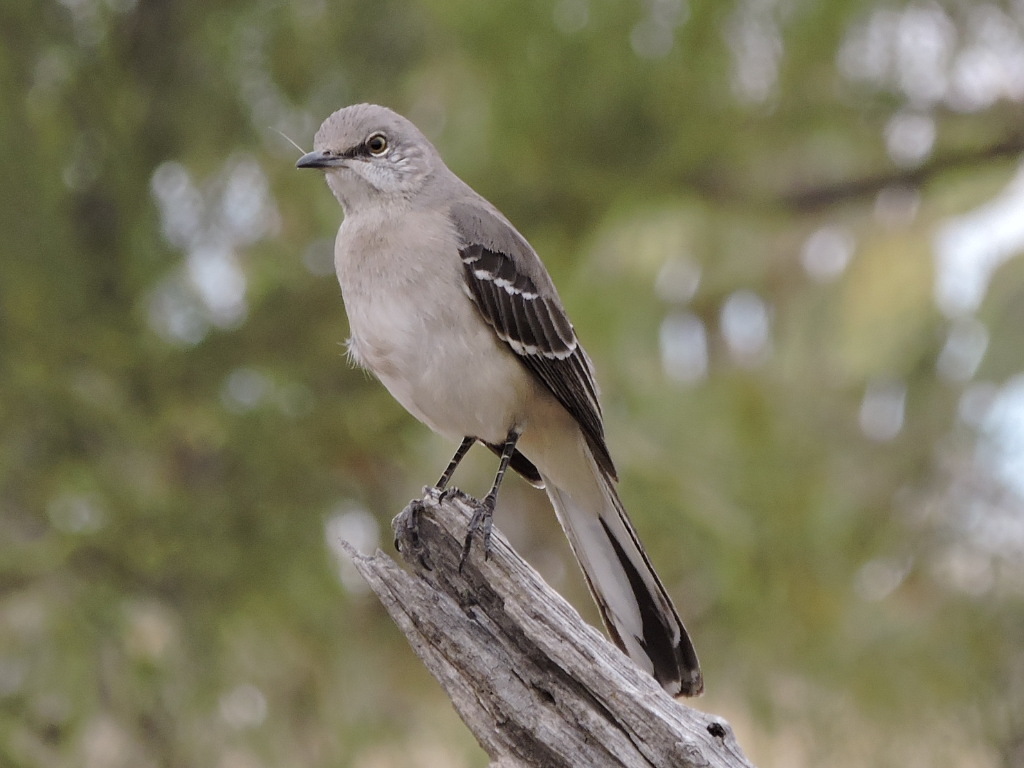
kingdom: Animalia
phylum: Chordata
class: Aves
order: Passeriformes
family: Mimidae
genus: Mimus
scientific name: Mimus polyglottos
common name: Northern mockingbird
